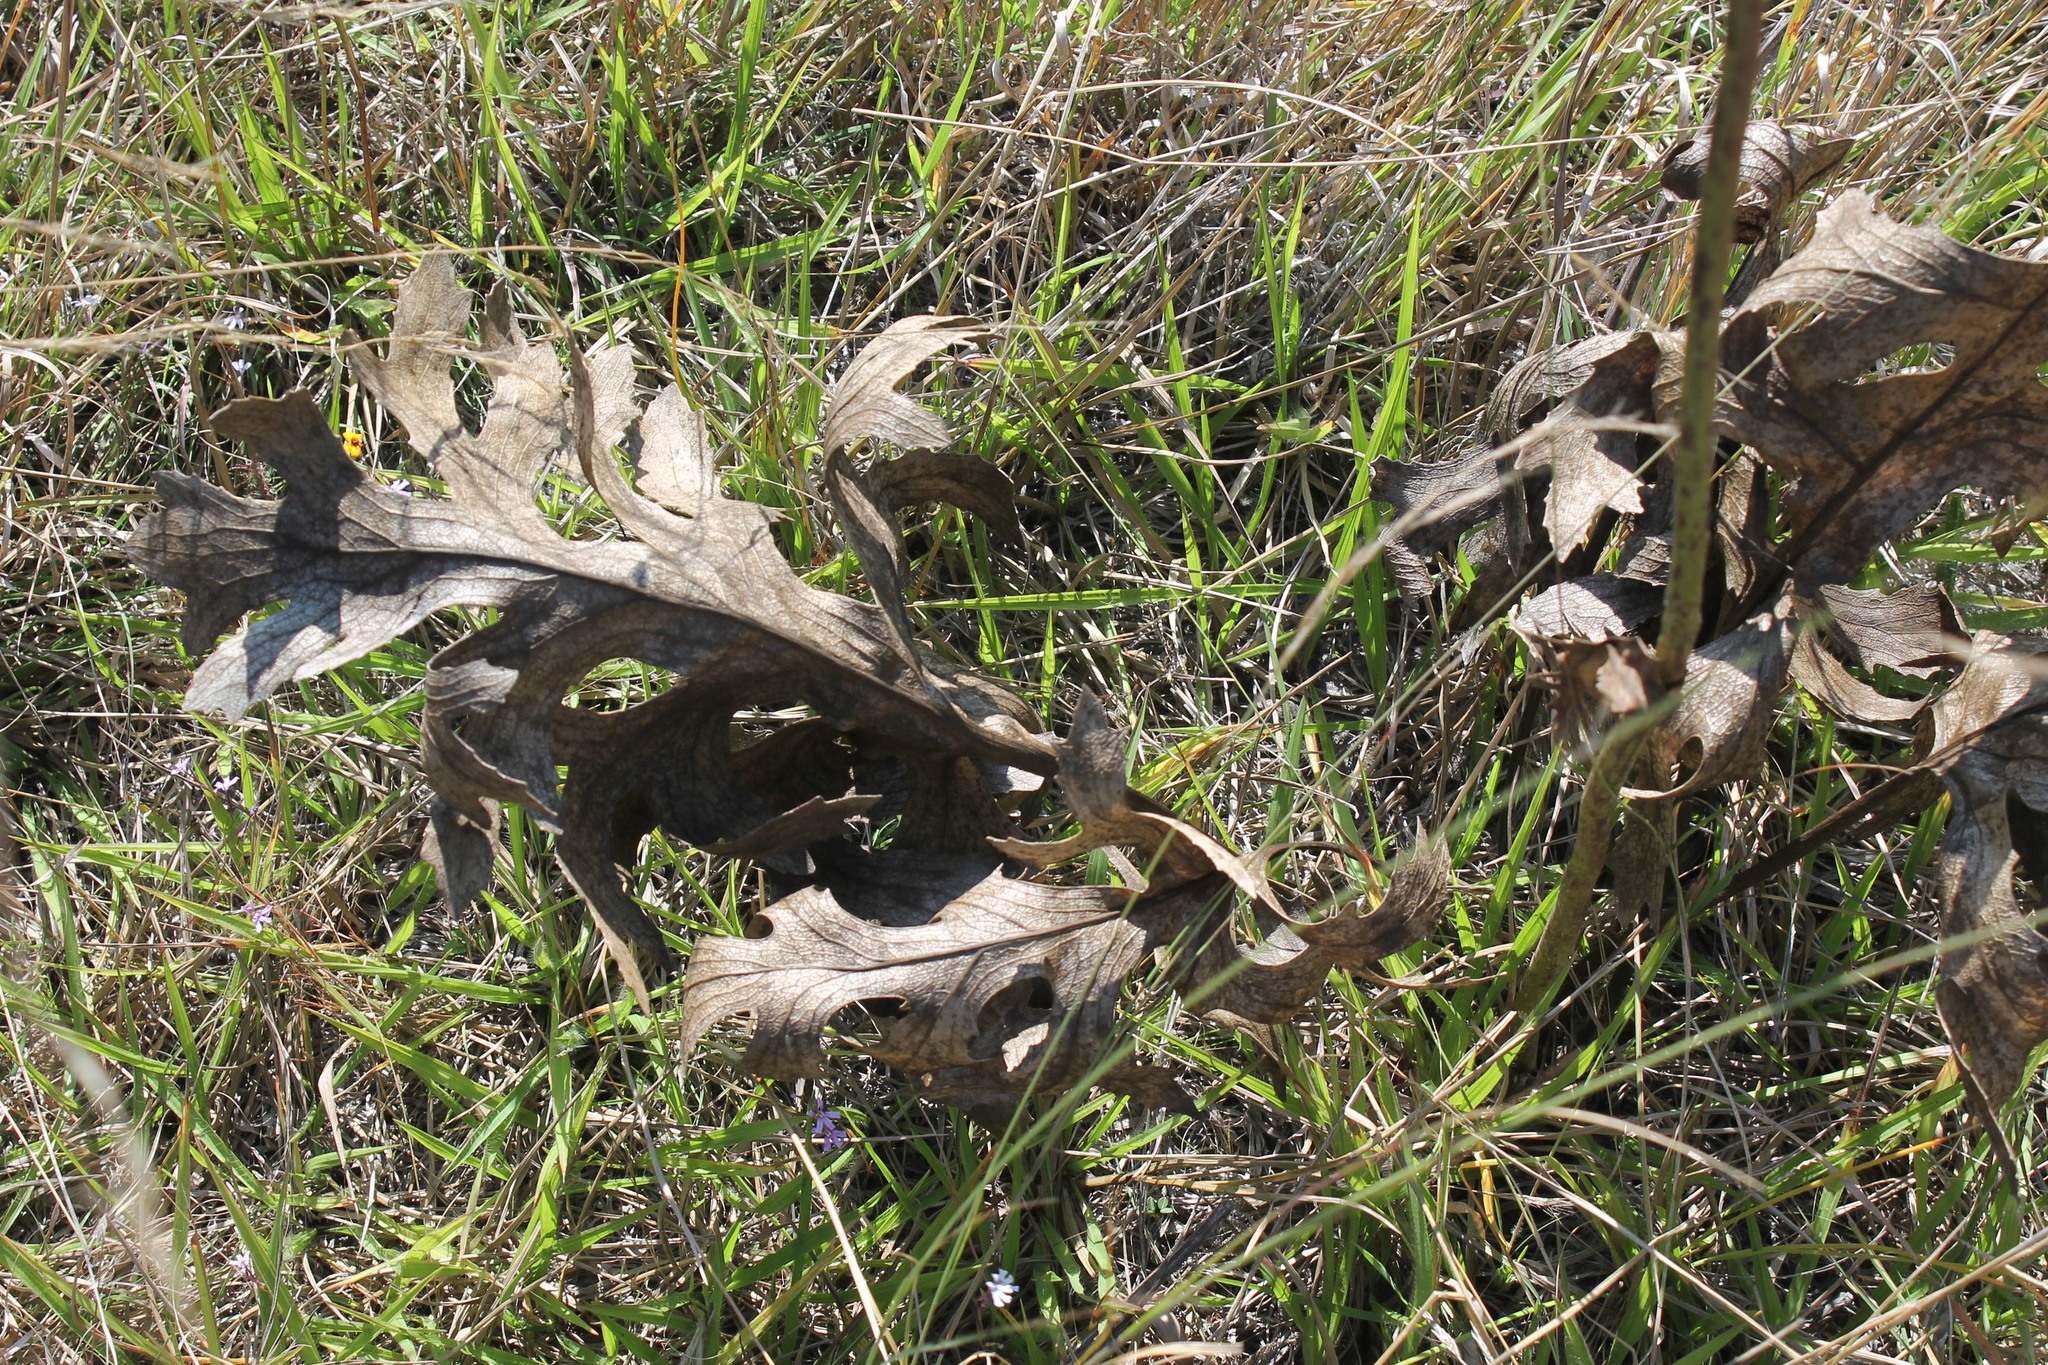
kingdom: Plantae
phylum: Tracheophyta
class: Magnoliopsida
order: Asterales
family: Asteraceae
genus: Psacalium
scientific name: Psacalium platylepis
